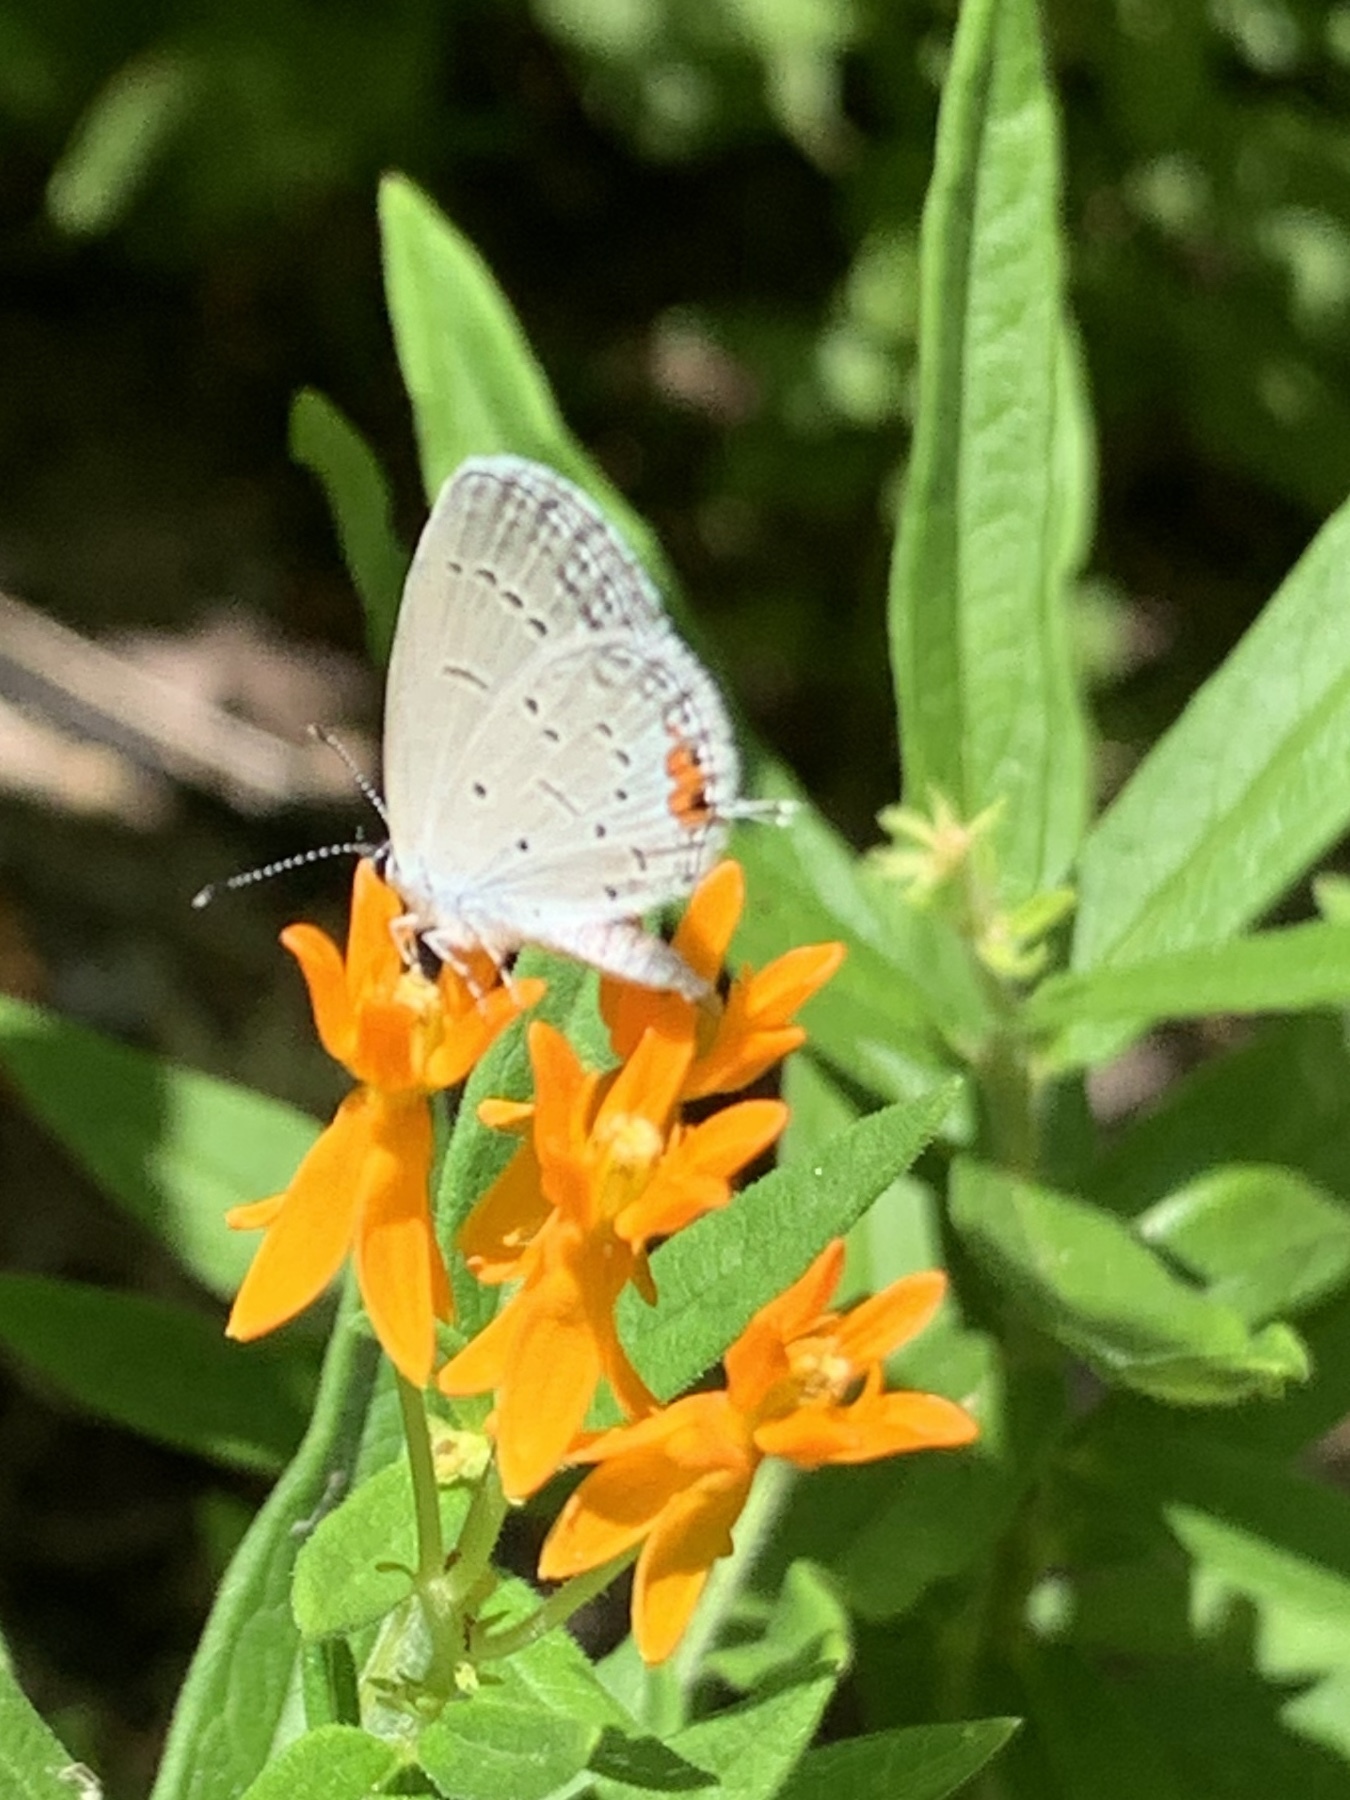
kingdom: Animalia
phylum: Arthropoda
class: Insecta
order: Lepidoptera
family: Lycaenidae
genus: Elkalyce
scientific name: Elkalyce comyntas
